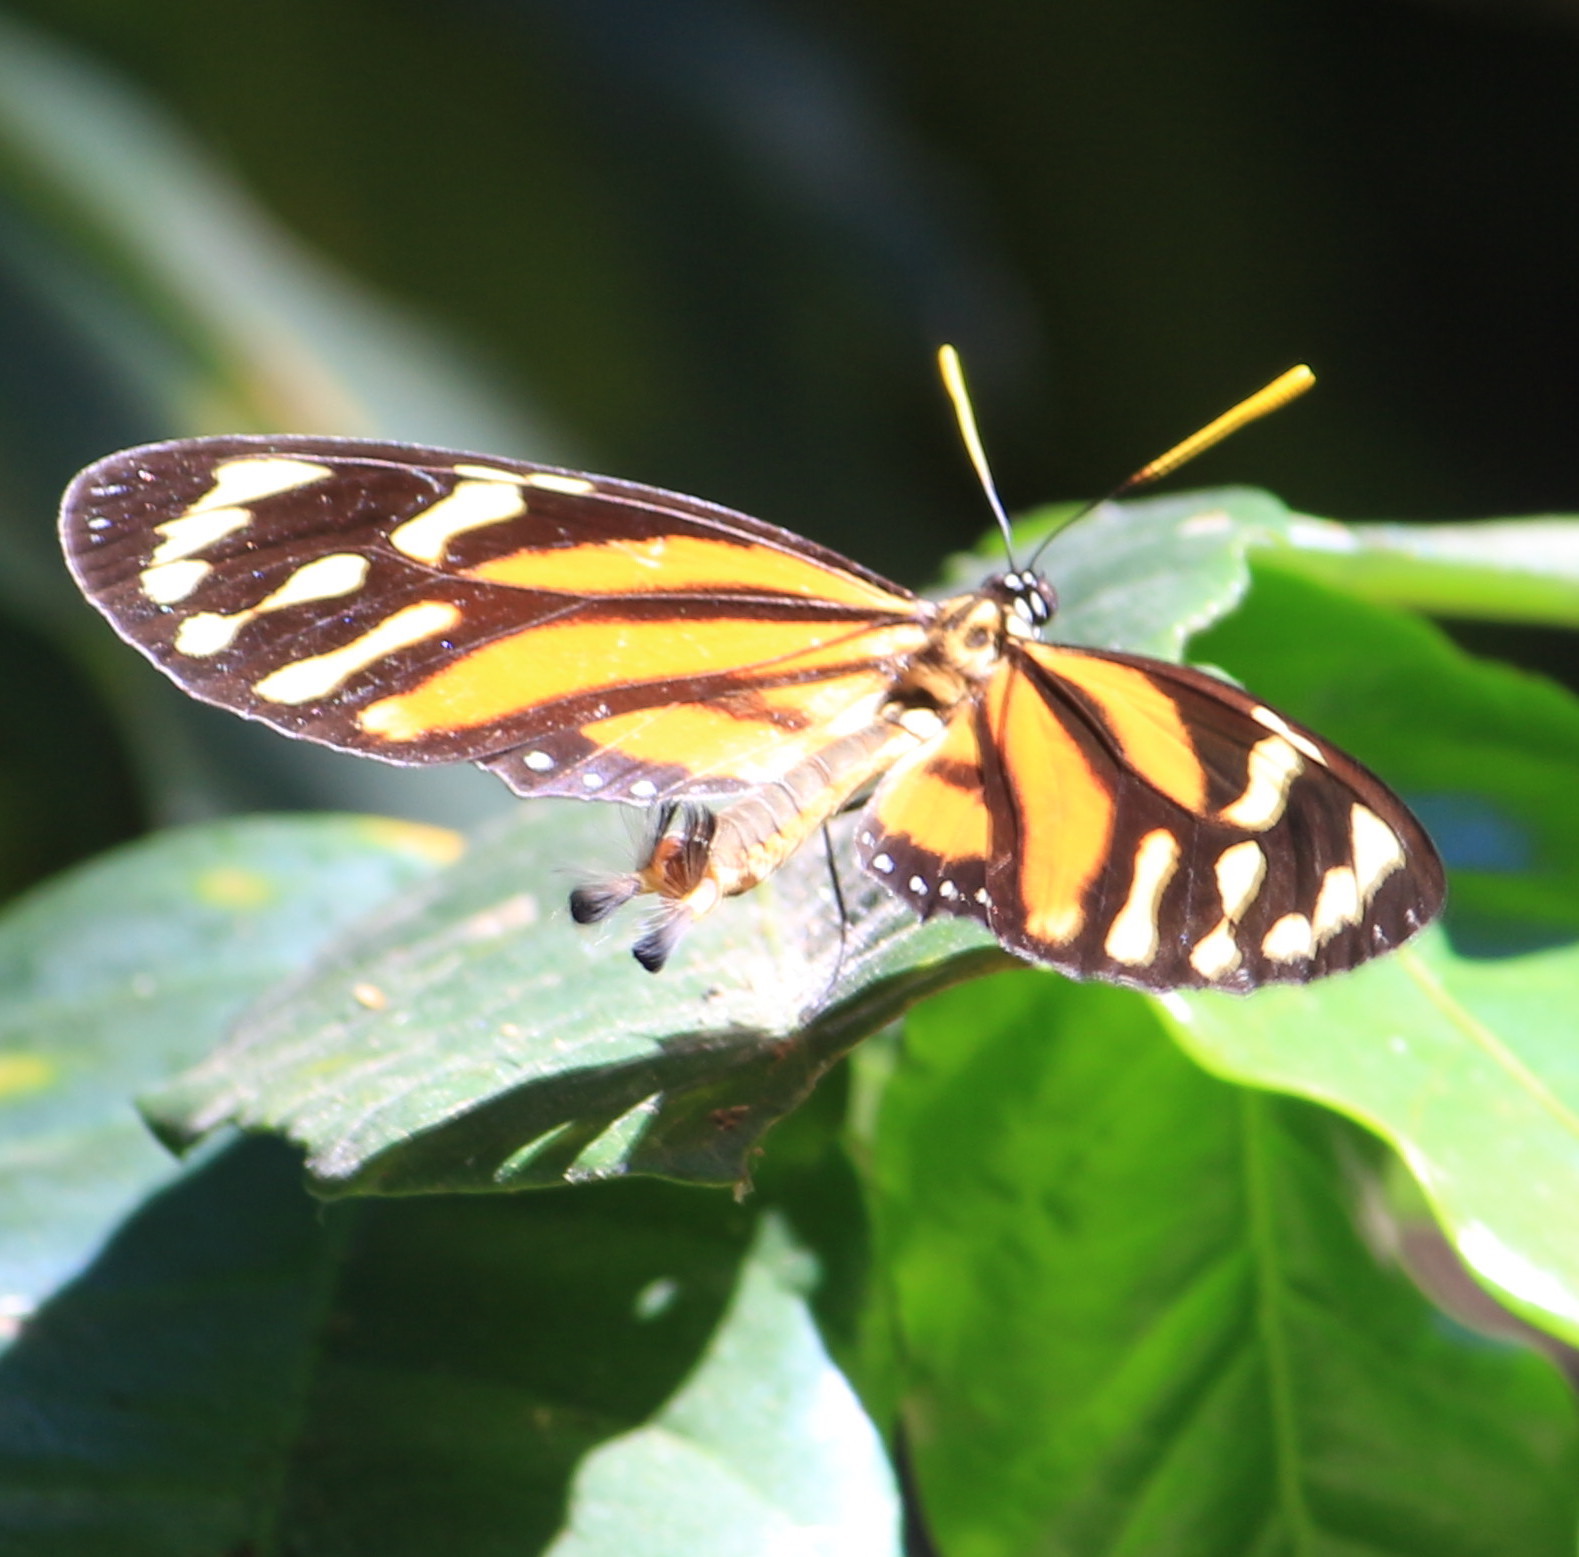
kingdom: Animalia
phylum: Arthropoda
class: Insecta
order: Lepidoptera
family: Nymphalidae
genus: Lycorea
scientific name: Lycorea cleobaea
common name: Tiger mimic-queen
